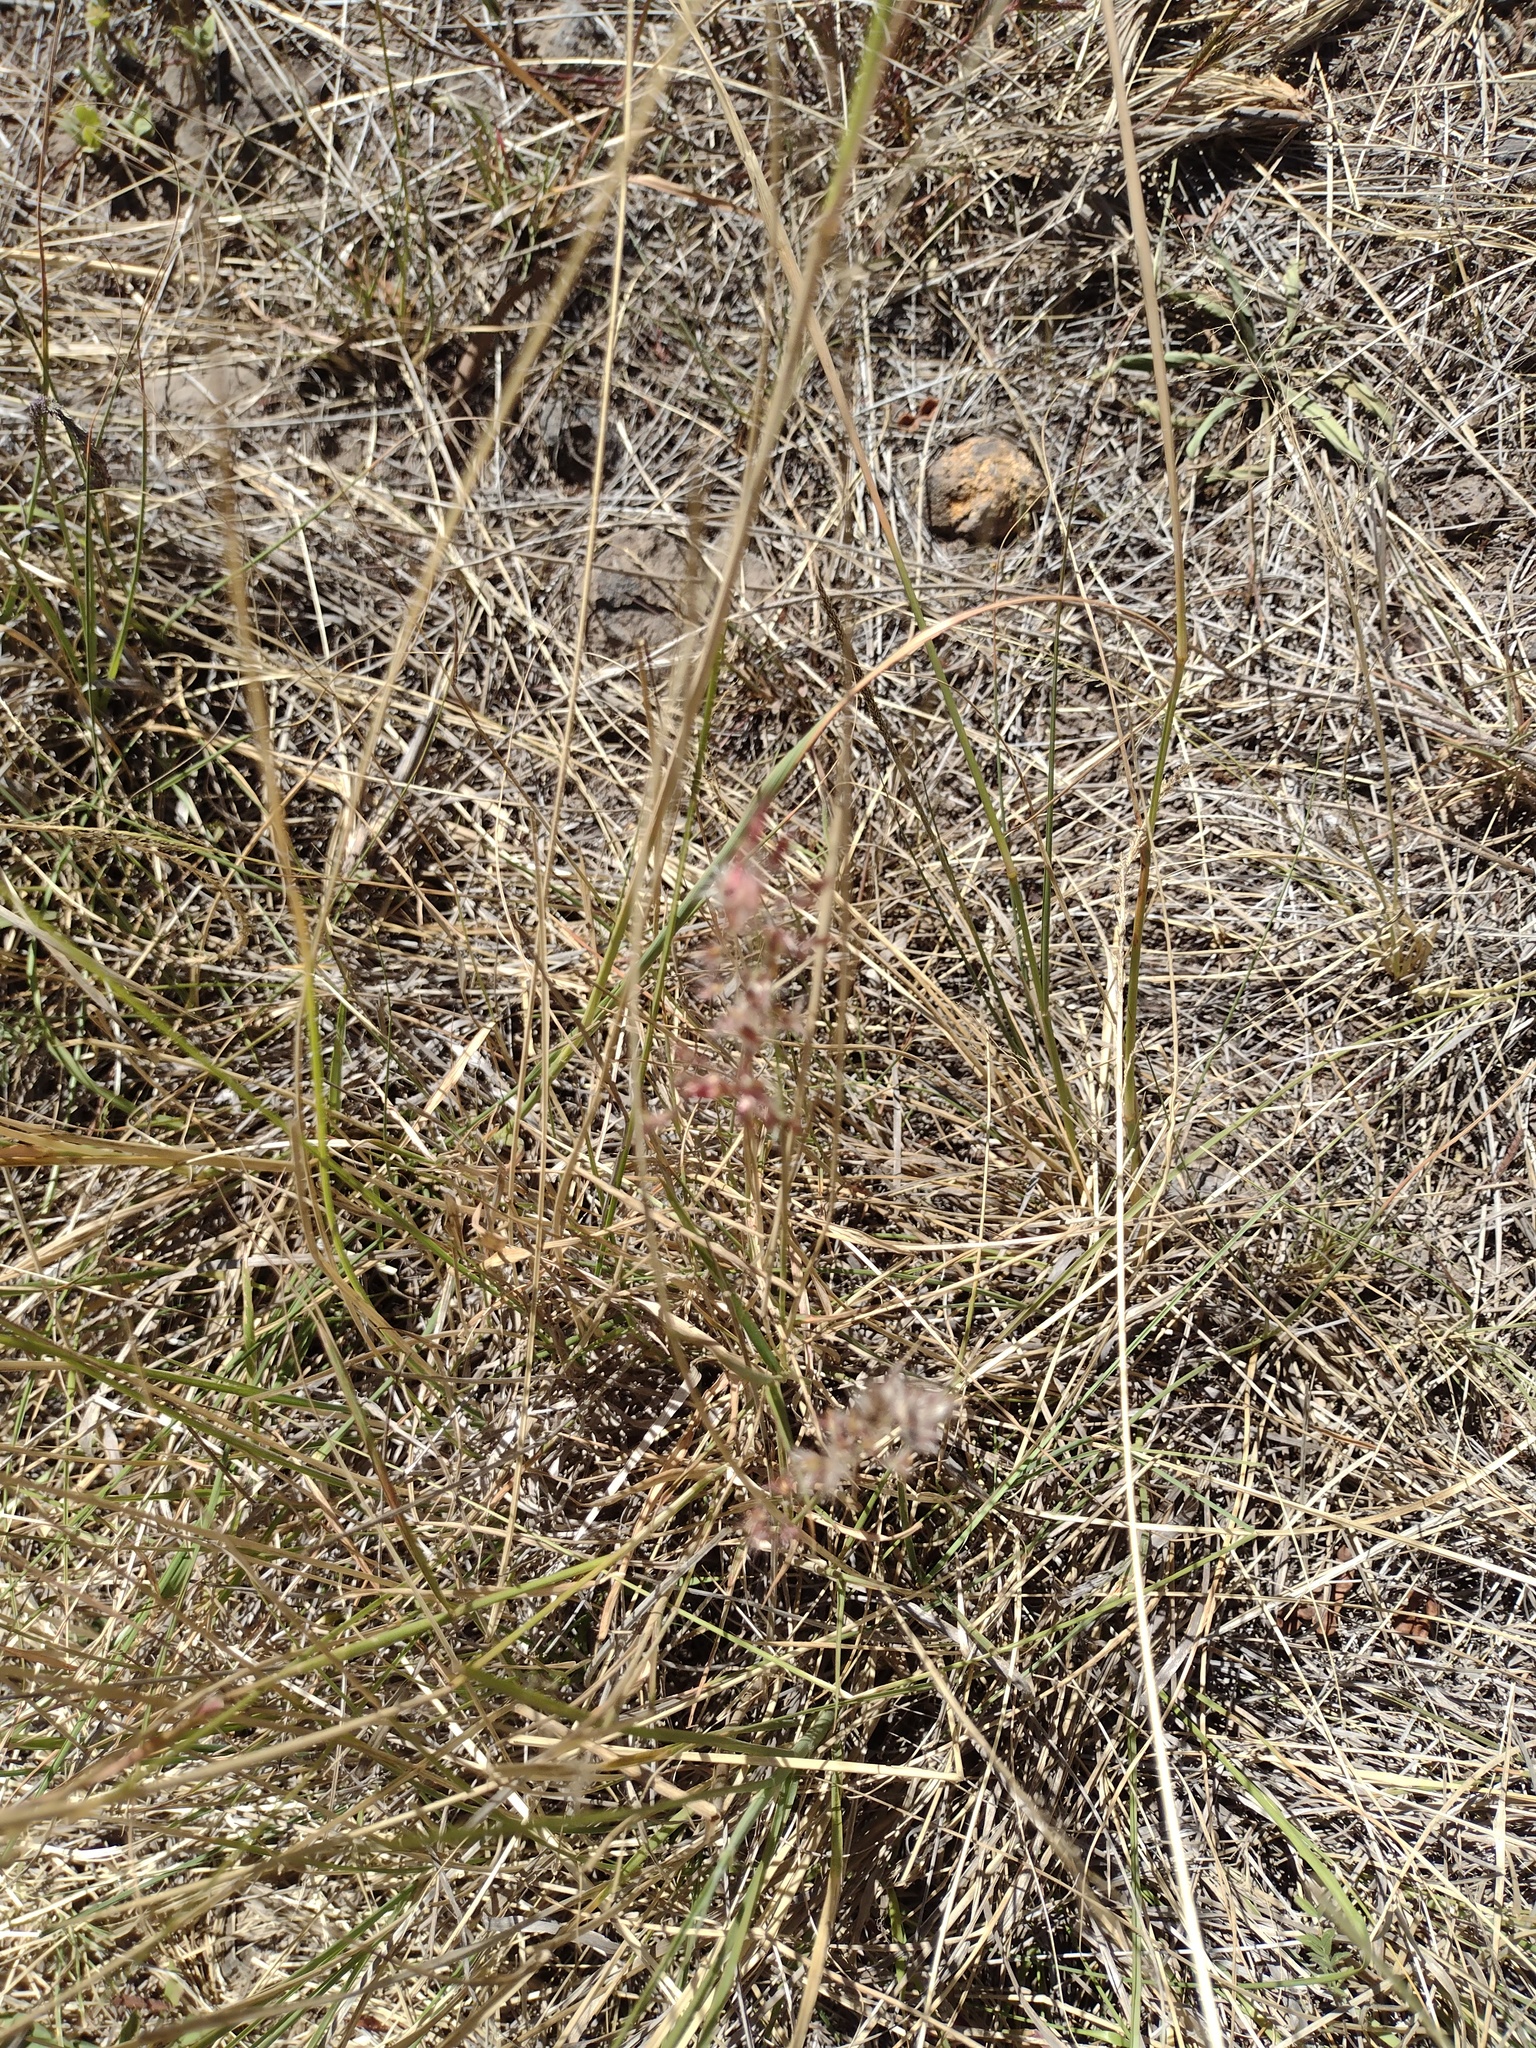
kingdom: Plantae
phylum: Tracheophyta
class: Liliopsida
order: Poales
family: Poaceae
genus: Melinis
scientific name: Melinis repens
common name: Rose natal grass
